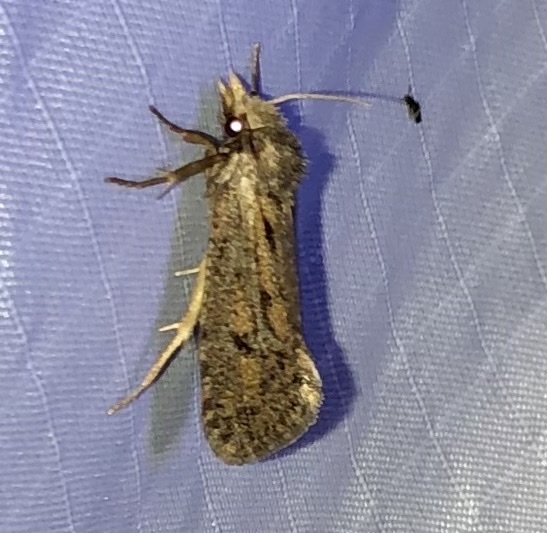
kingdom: Animalia
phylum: Arthropoda
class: Insecta
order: Lepidoptera
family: Tineidae
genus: Acrolophus
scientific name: Acrolophus popeanella
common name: Clemens' grass tubeworm moth
